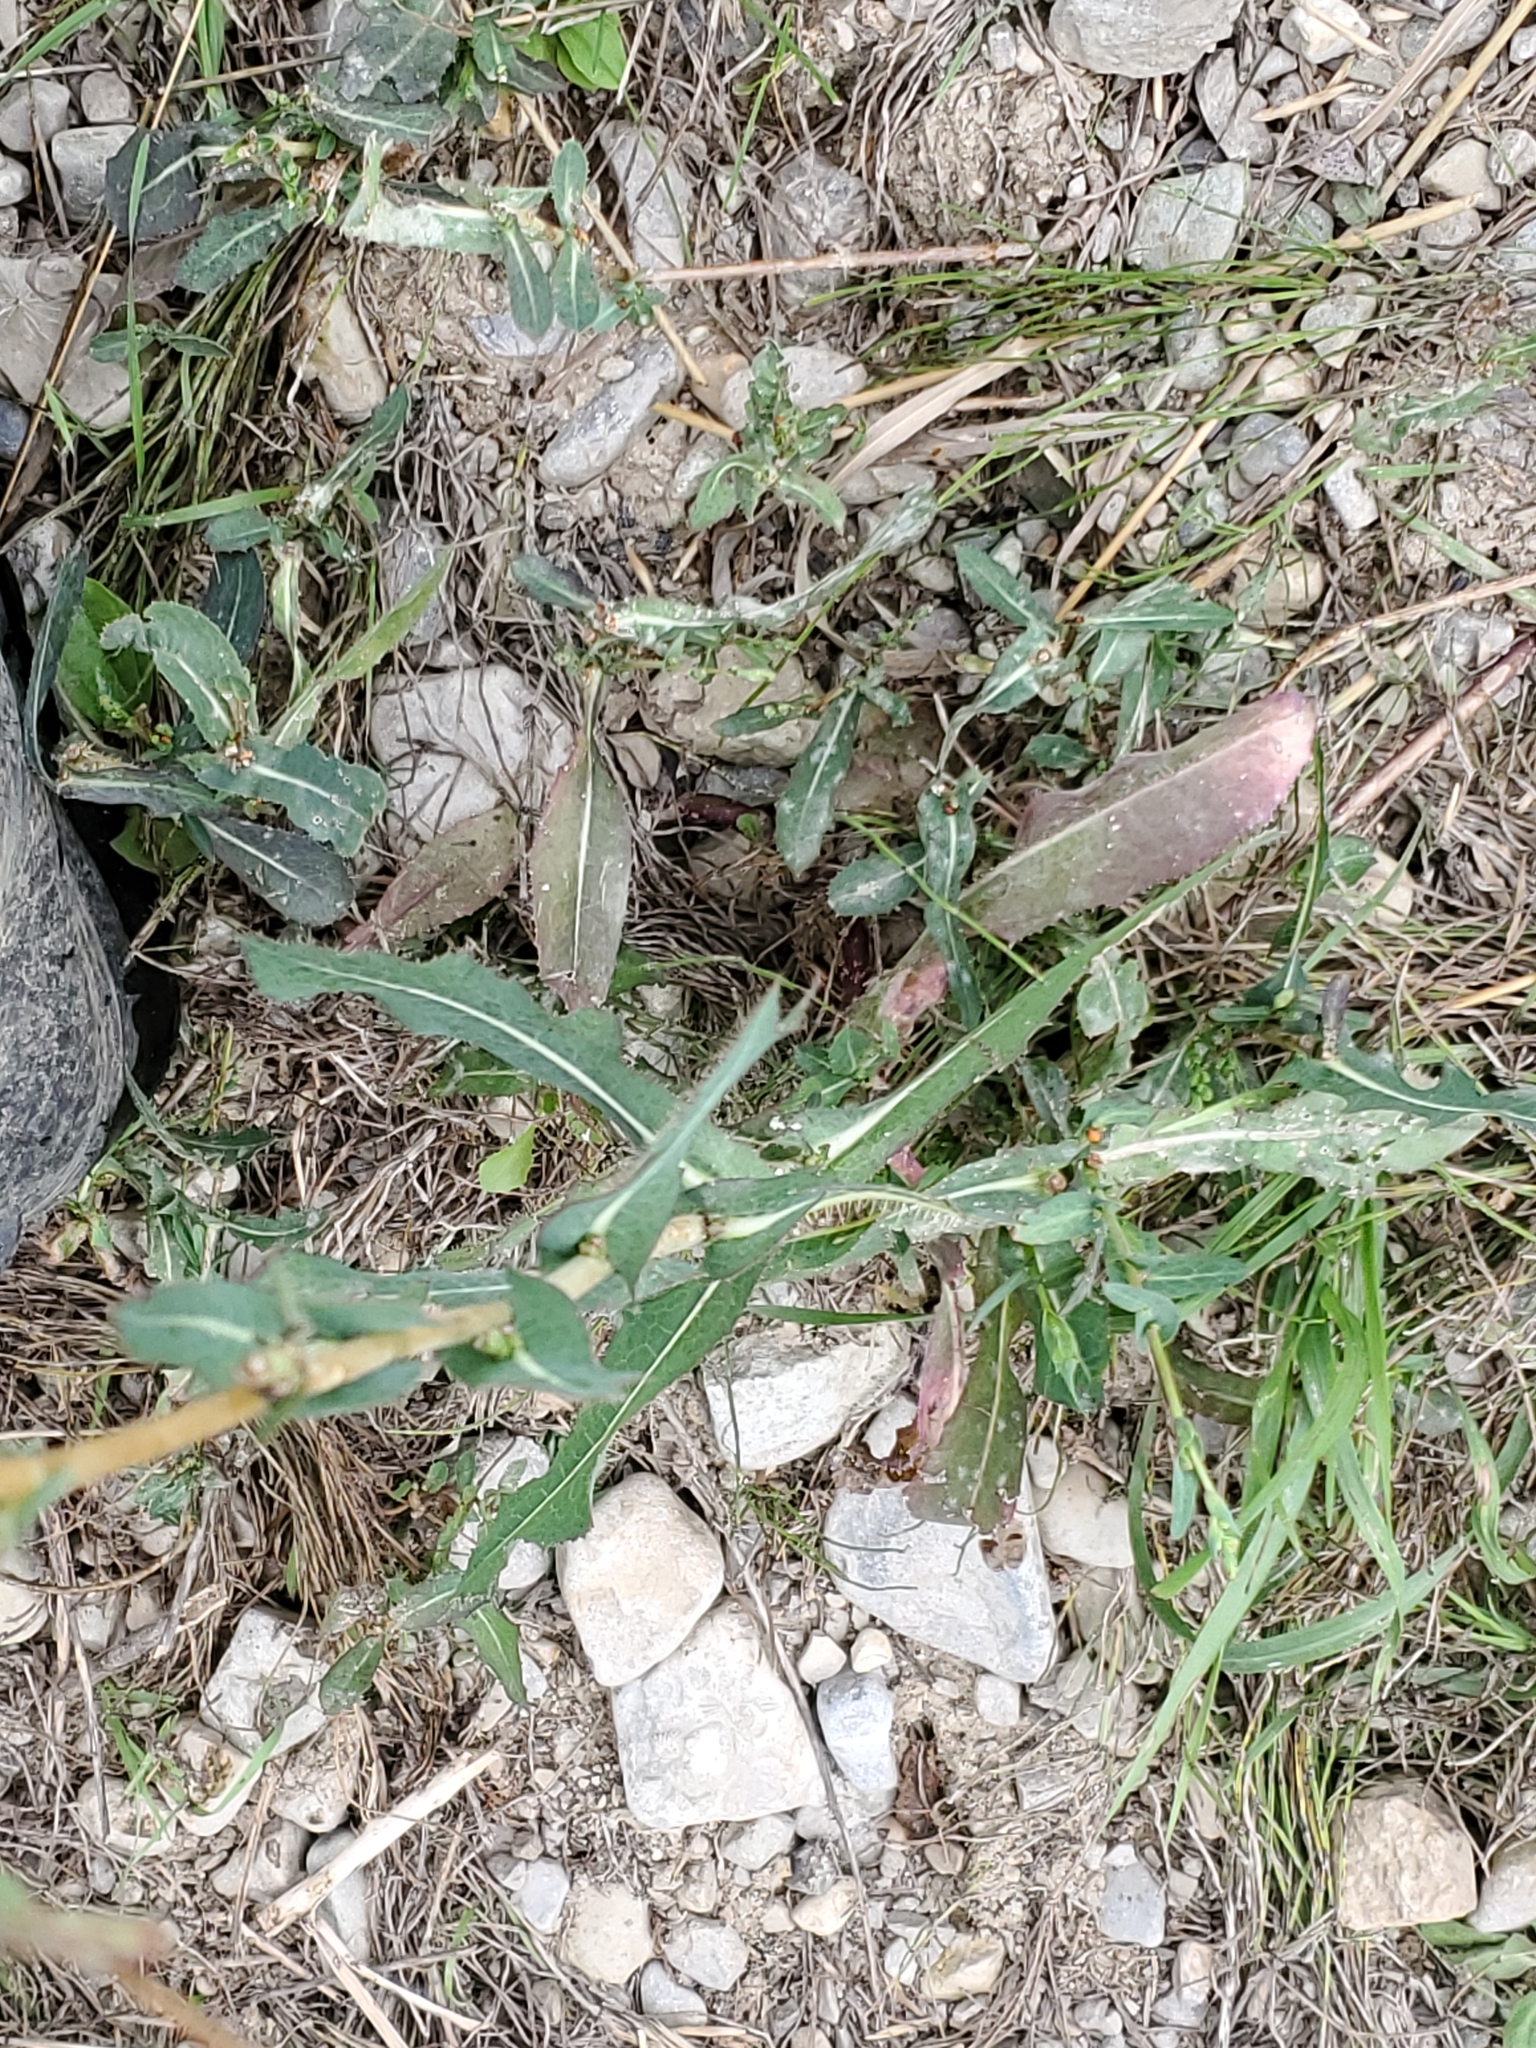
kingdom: Plantae
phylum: Tracheophyta
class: Magnoliopsida
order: Asterales
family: Asteraceae
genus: Lactuca
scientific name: Lactuca serriola
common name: Prickly lettuce
